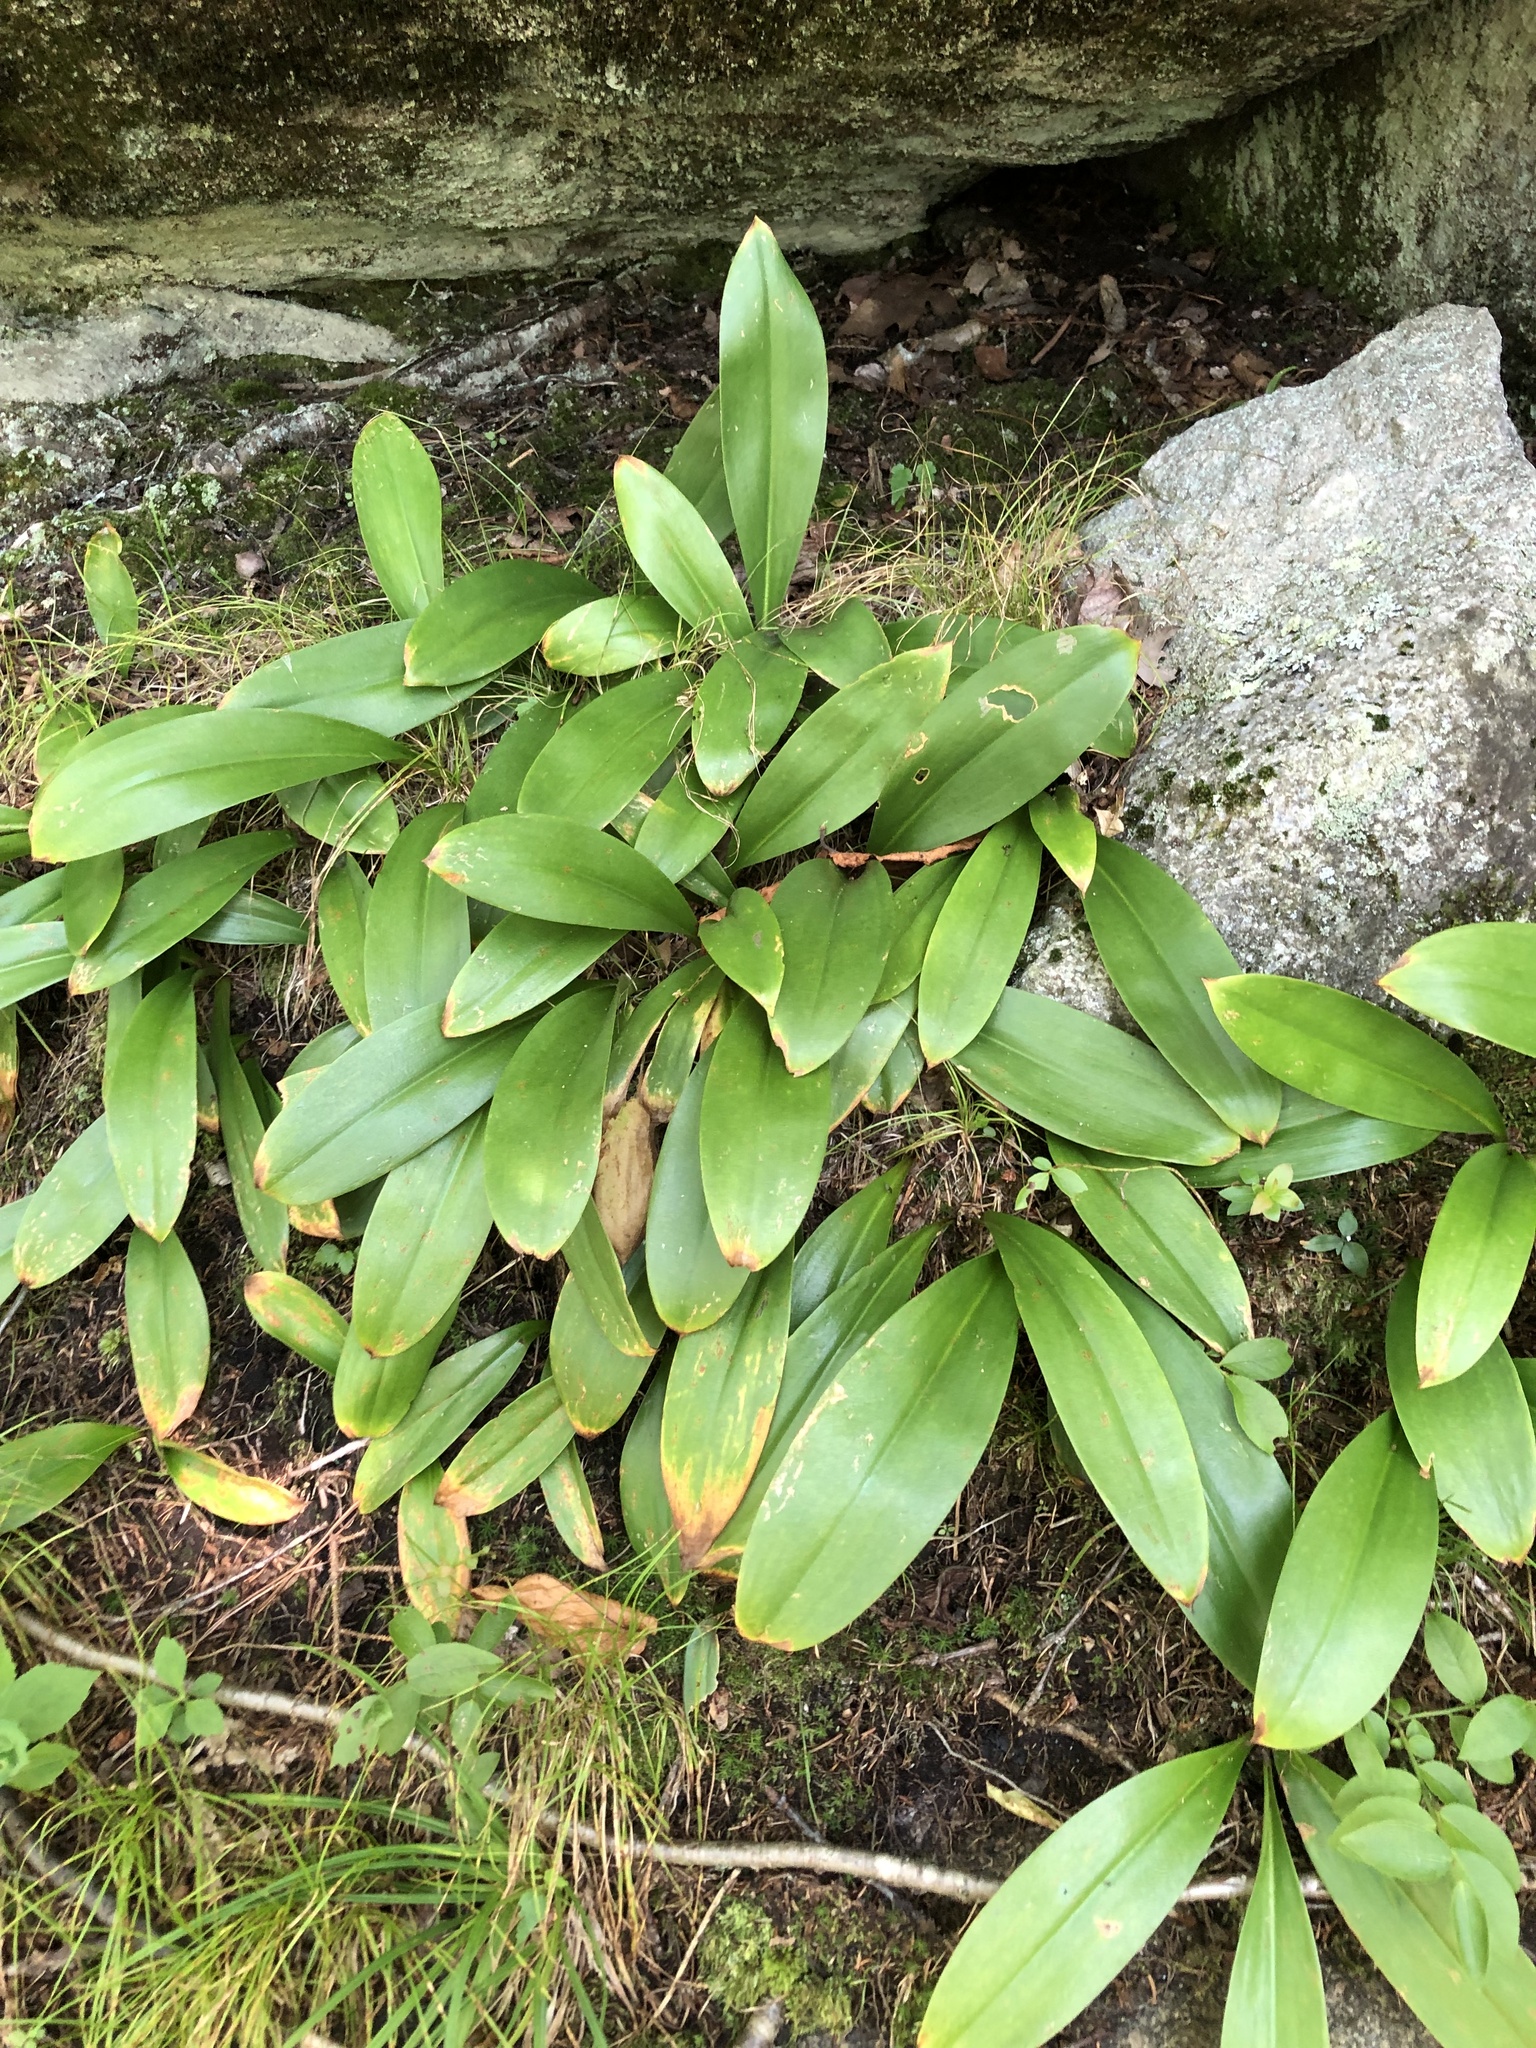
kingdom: Plantae
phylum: Tracheophyta
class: Liliopsida
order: Liliales
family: Liliaceae
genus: Clintonia
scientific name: Clintonia borealis
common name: Yellow clintonia
